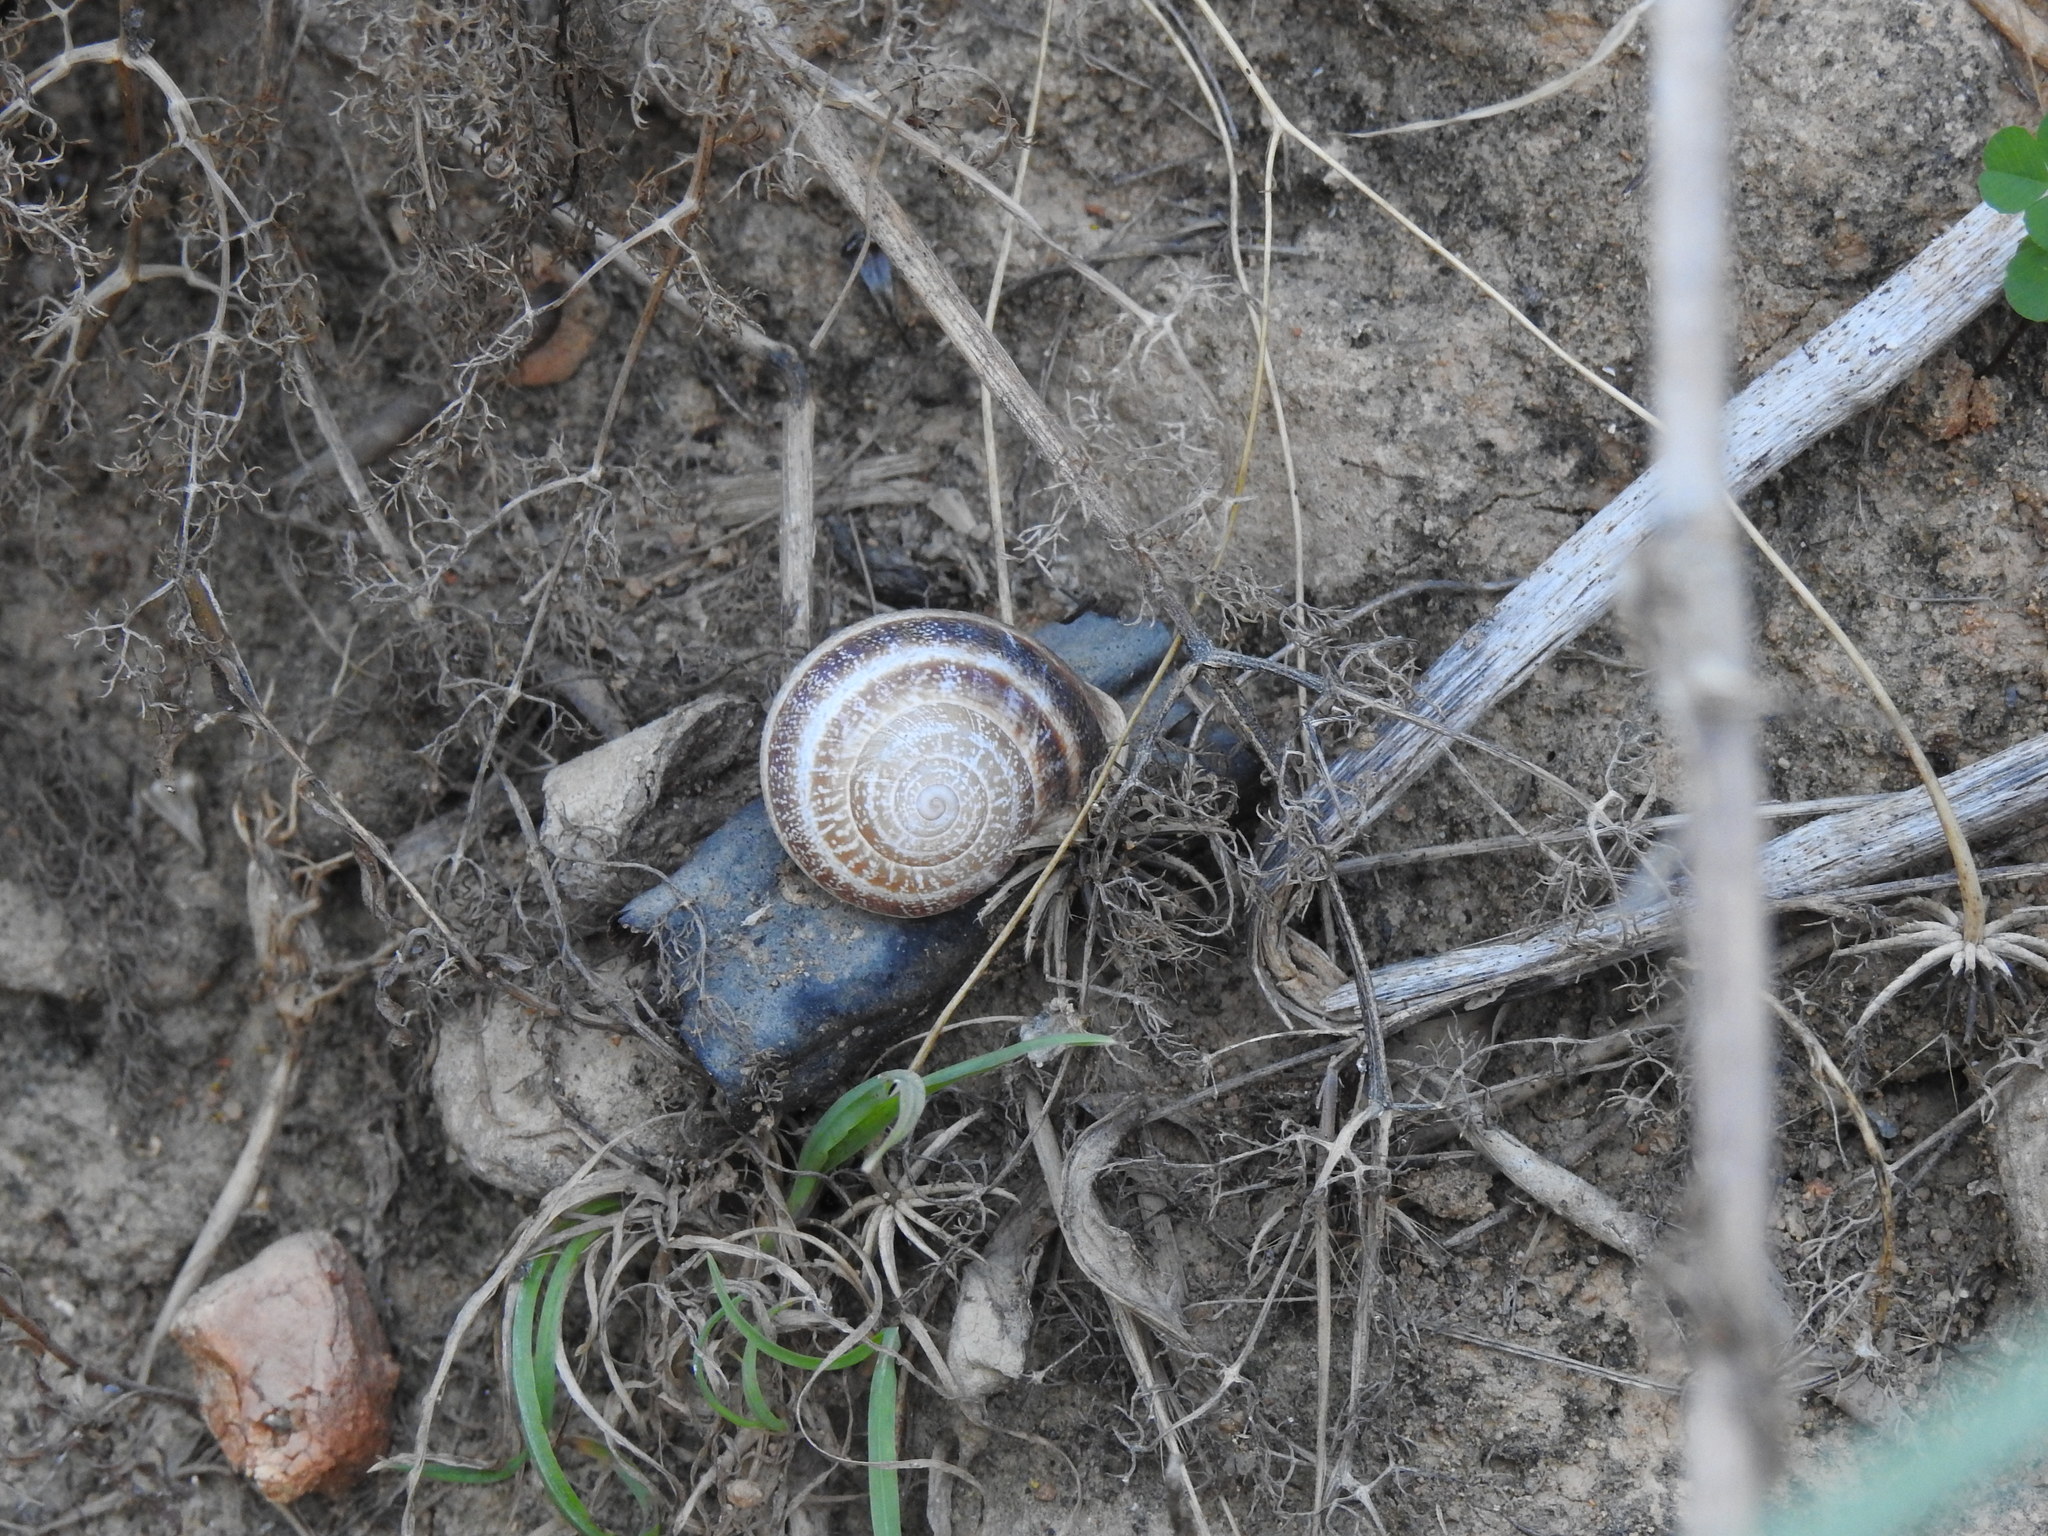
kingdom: Animalia
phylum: Mollusca
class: Gastropoda
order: Stylommatophora
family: Helicidae
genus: Otala
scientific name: Otala lactea
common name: Milk snail
